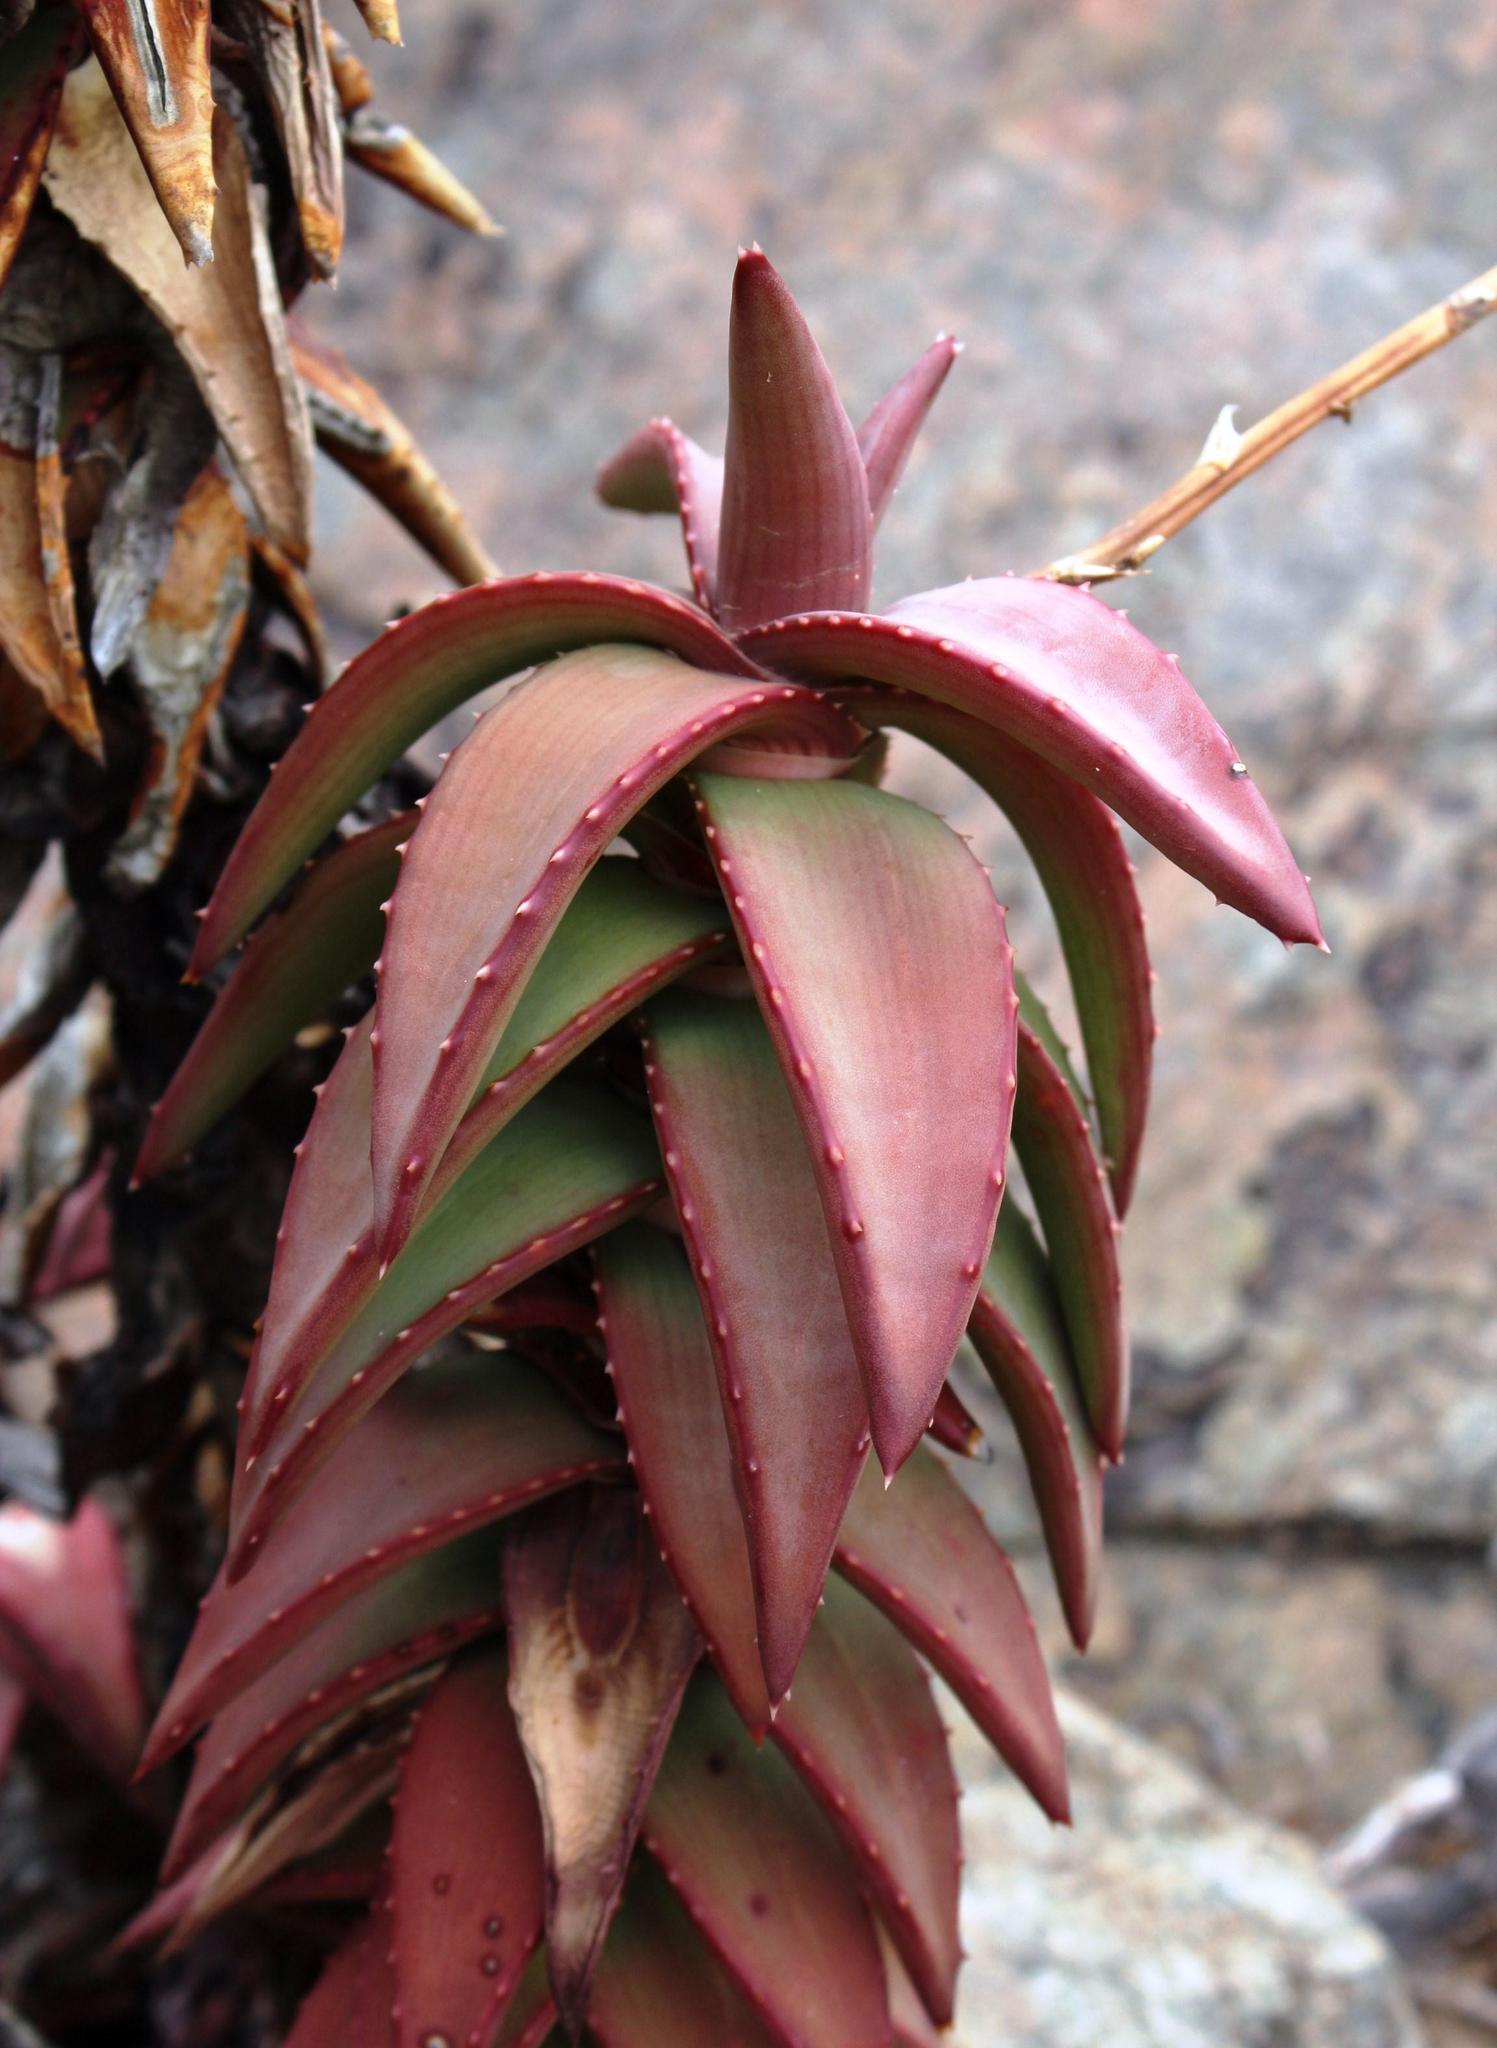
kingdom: Plantae
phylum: Tracheophyta
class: Liliopsida
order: Asparagales
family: Asphodelaceae
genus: Aloe
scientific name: Aloe pearsonii
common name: Pearson's aloe
